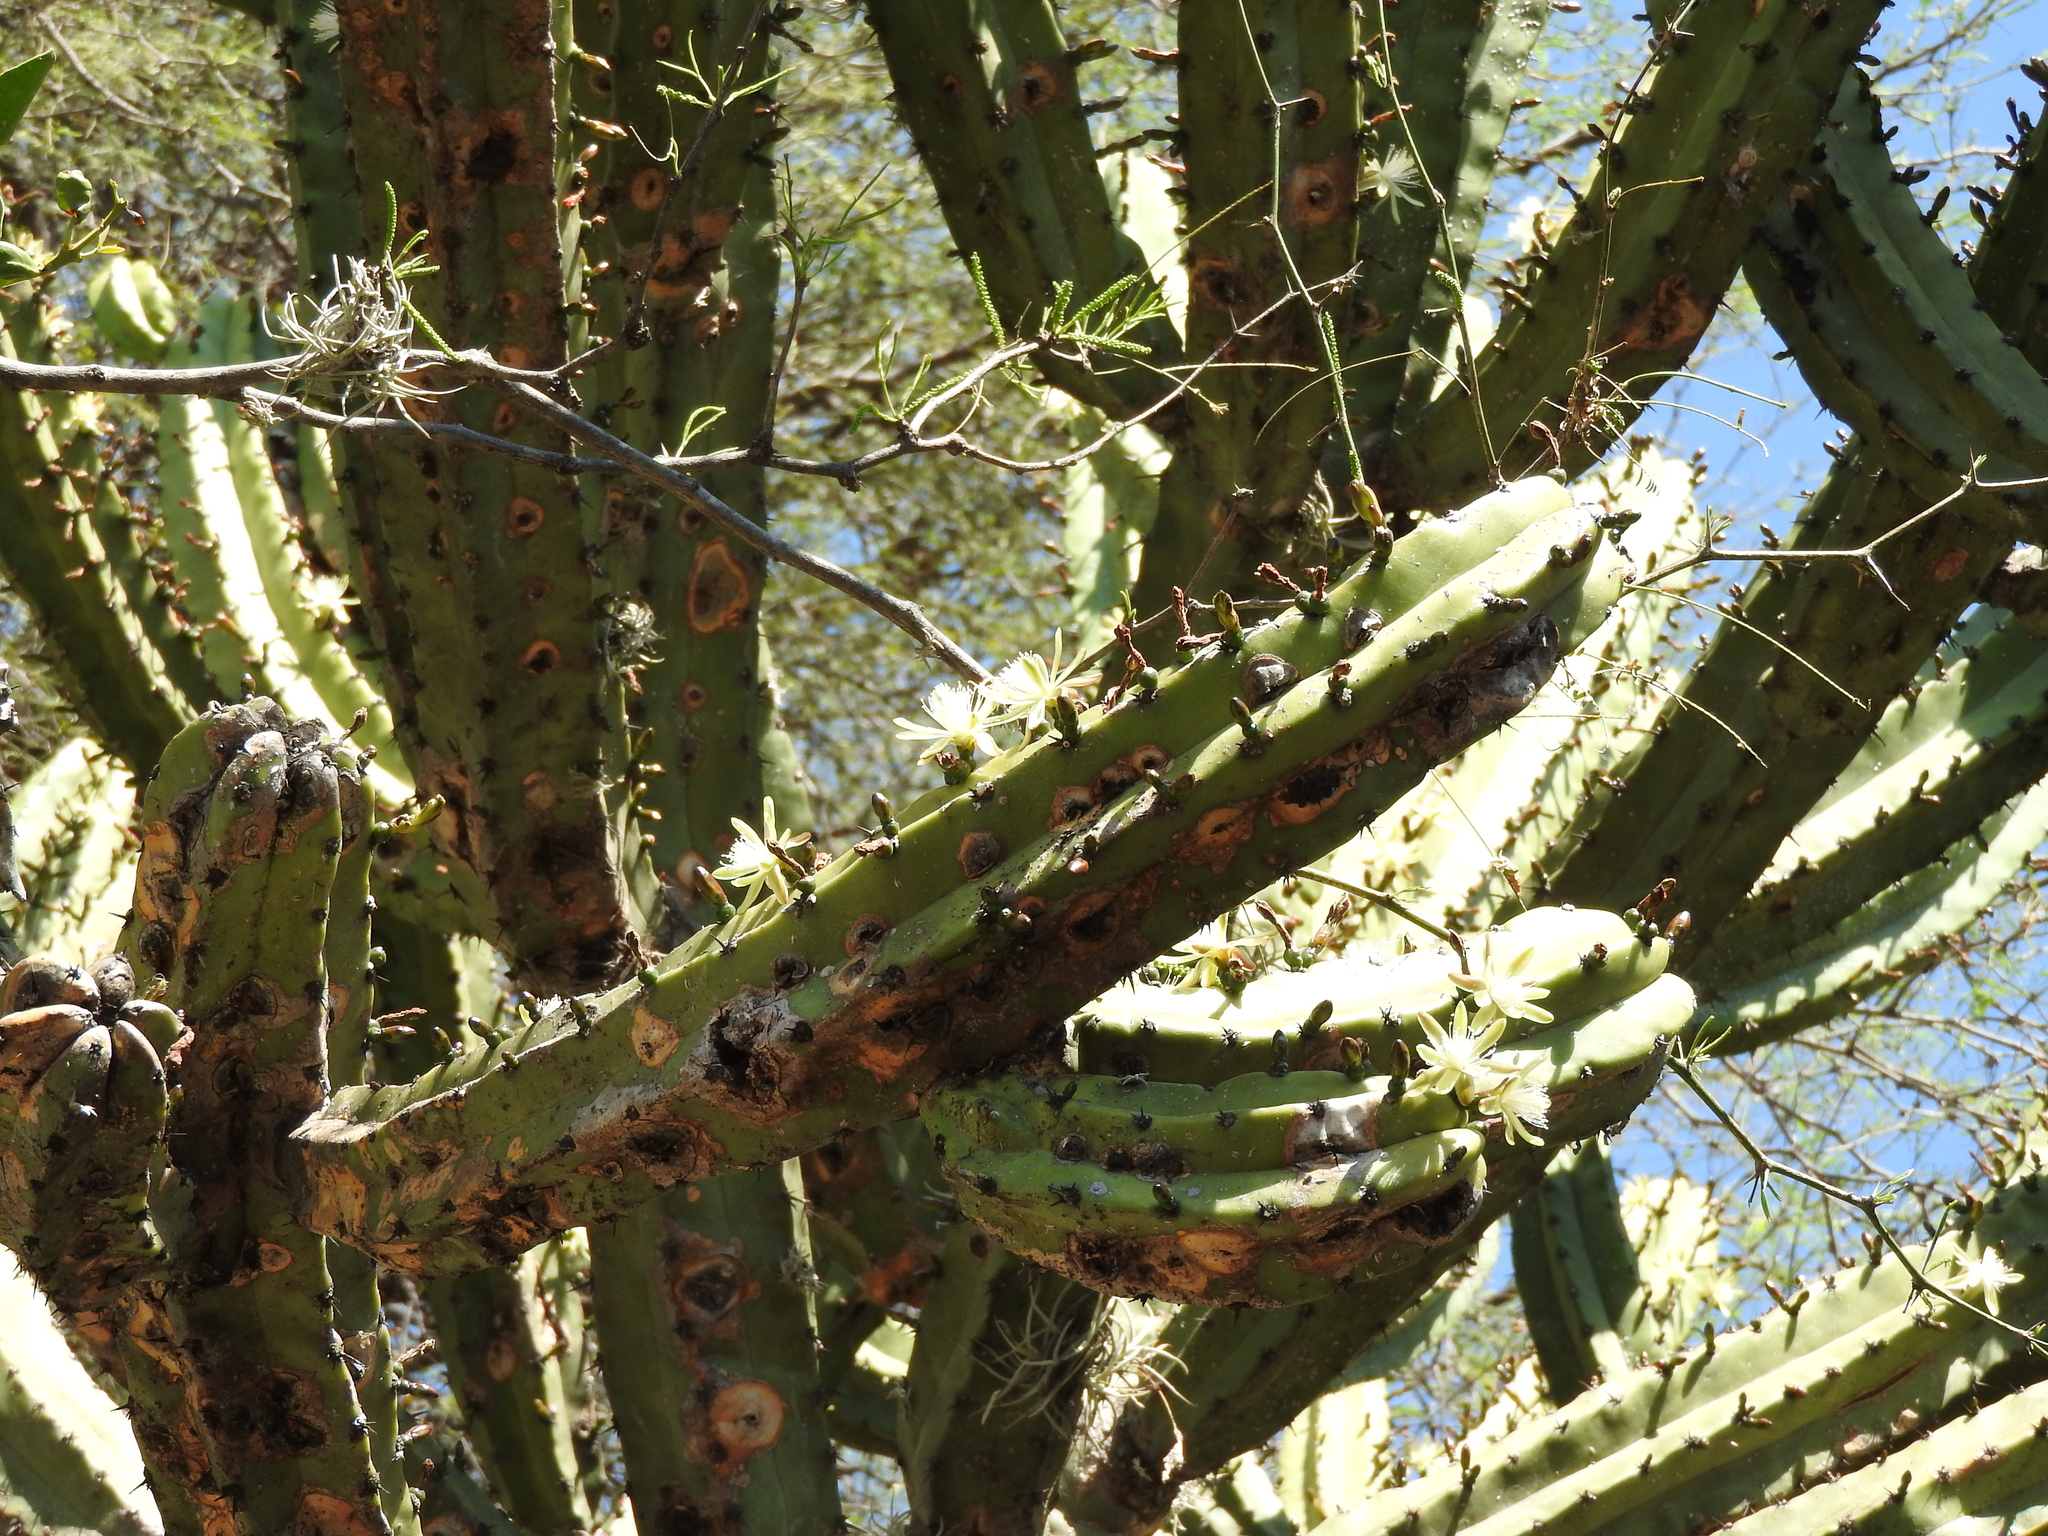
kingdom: Plantae
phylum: Tracheophyta
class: Magnoliopsida
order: Caryophyllales
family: Cactaceae
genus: Myrtillocactus
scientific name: Myrtillocactus geometrizans
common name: Bilberry cactus
